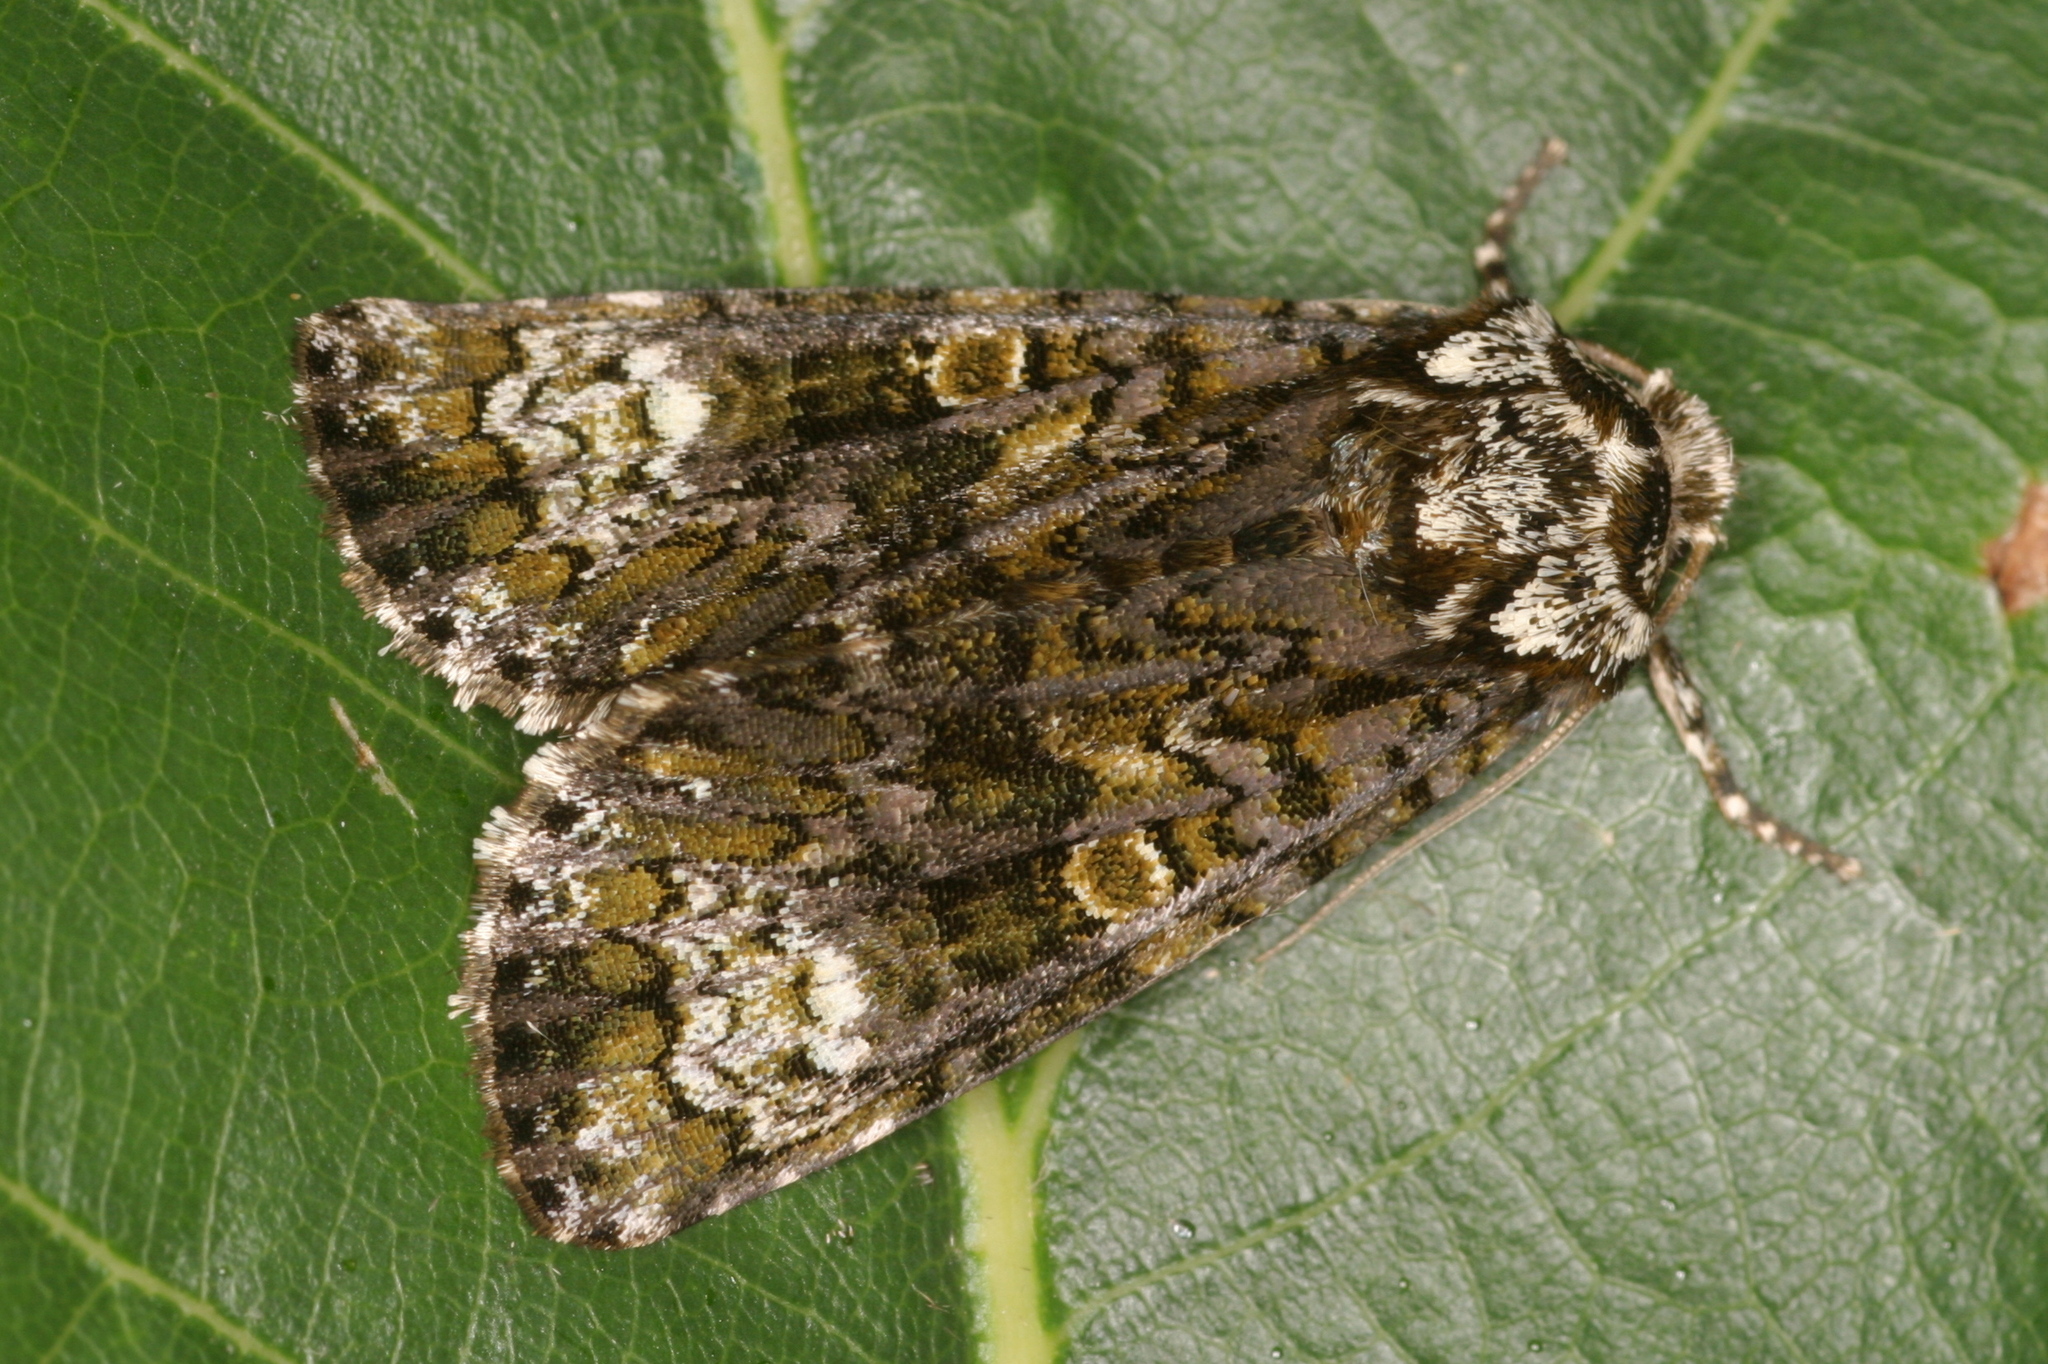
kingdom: Animalia
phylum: Arthropoda
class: Insecta
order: Lepidoptera
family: Noctuidae
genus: Craniophora
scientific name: Craniophora ligustri
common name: Coronet
